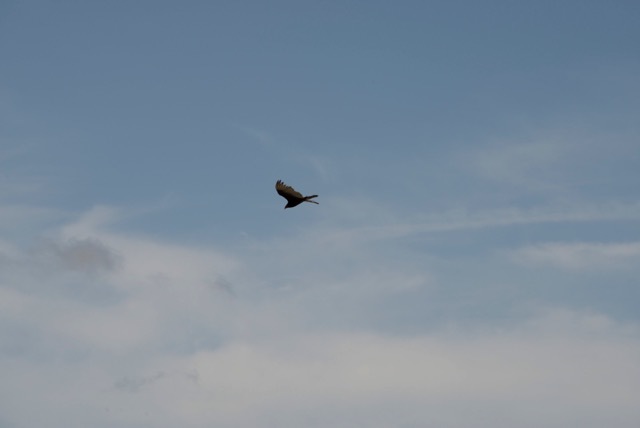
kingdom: Animalia
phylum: Chordata
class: Aves
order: Accipitriformes
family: Cathartidae
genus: Cathartes
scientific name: Cathartes aura
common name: Turkey vulture
